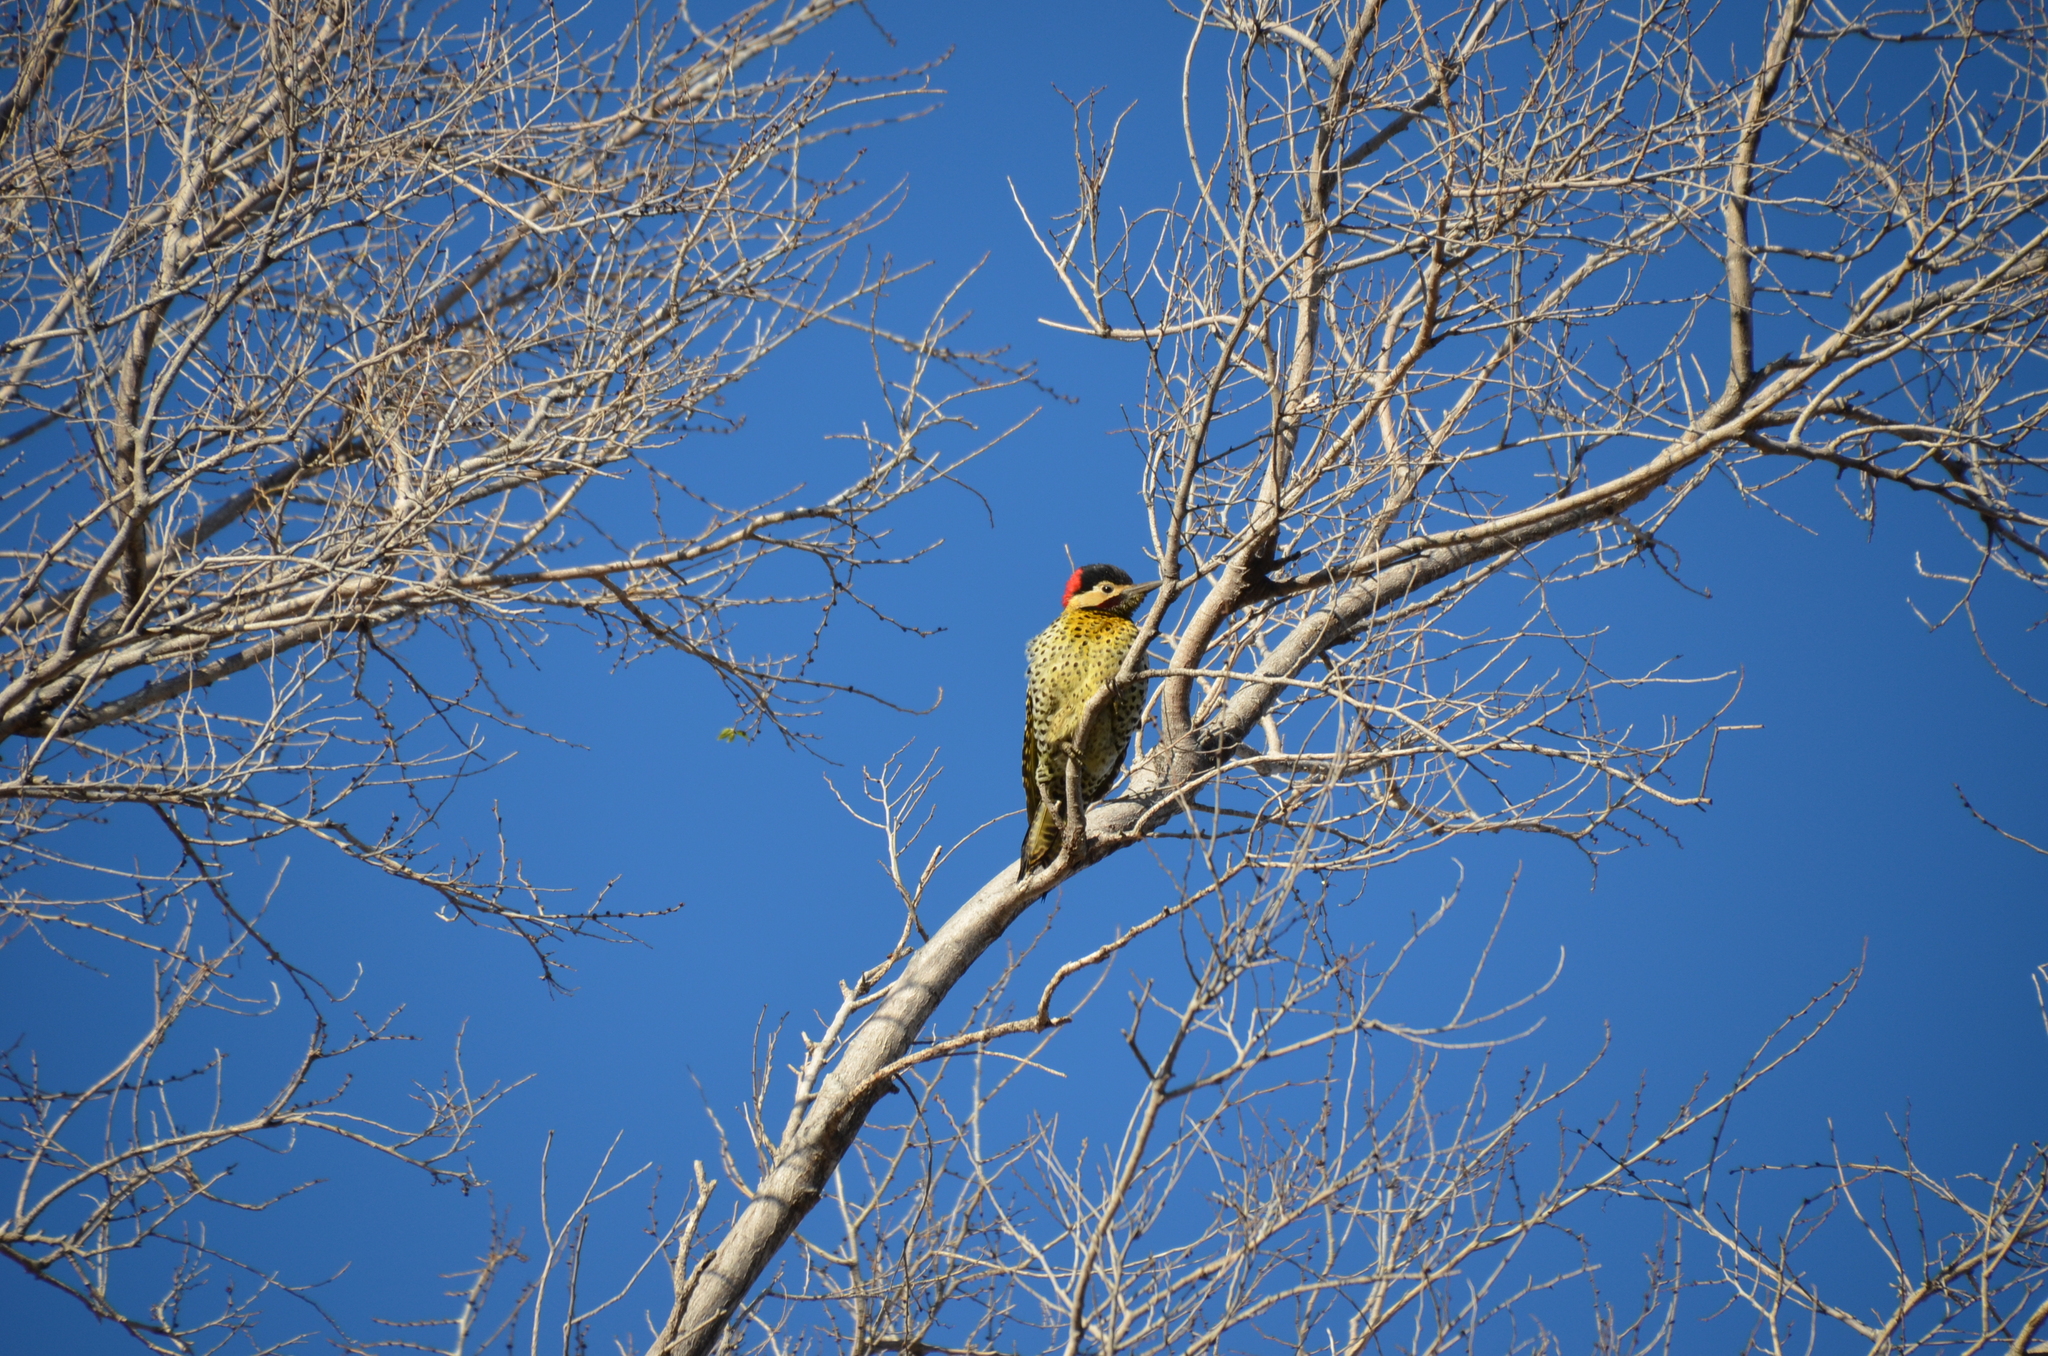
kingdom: Animalia
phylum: Chordata
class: Aves
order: Piciformes
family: Picidae
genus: Colaptes
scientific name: Colaptes melanochloros
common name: Green-barred woodpecker
